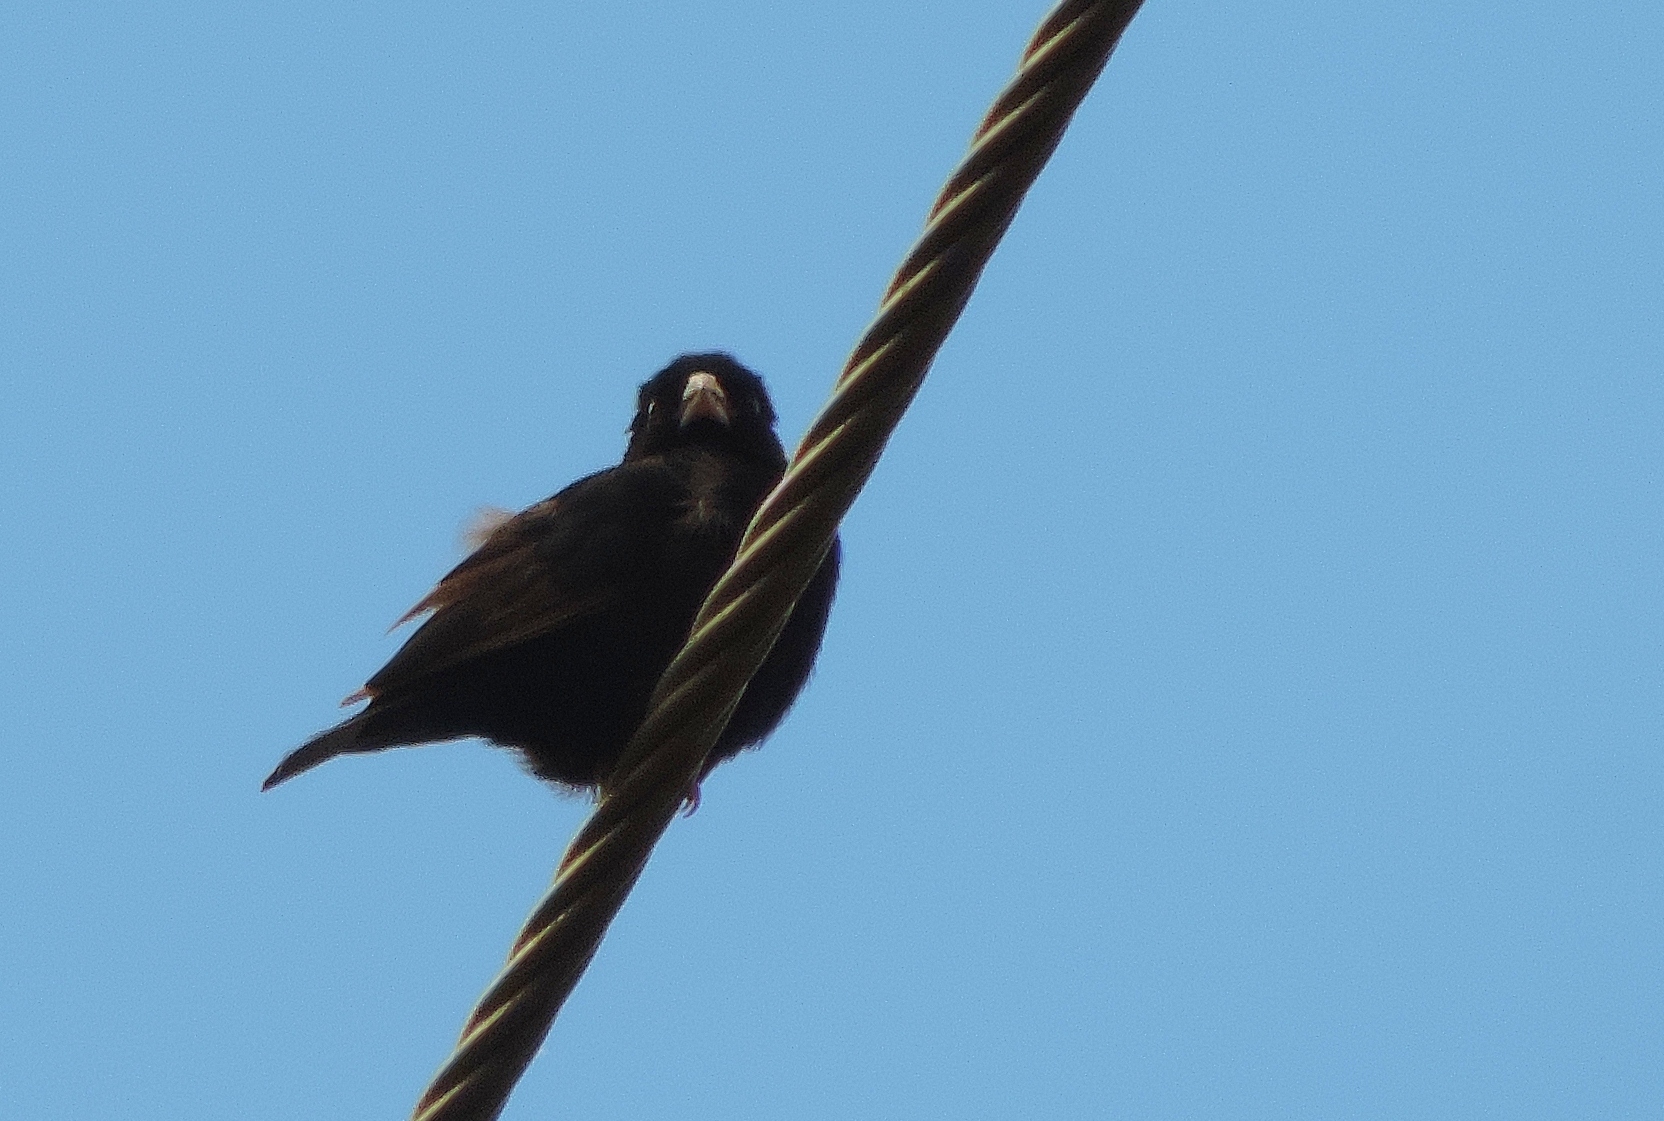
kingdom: Animalia
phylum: Chordata
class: Aves
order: Passeriformes
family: Viduidae
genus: Vidua
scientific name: Vidua purpurascens
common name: Purple indigobird
